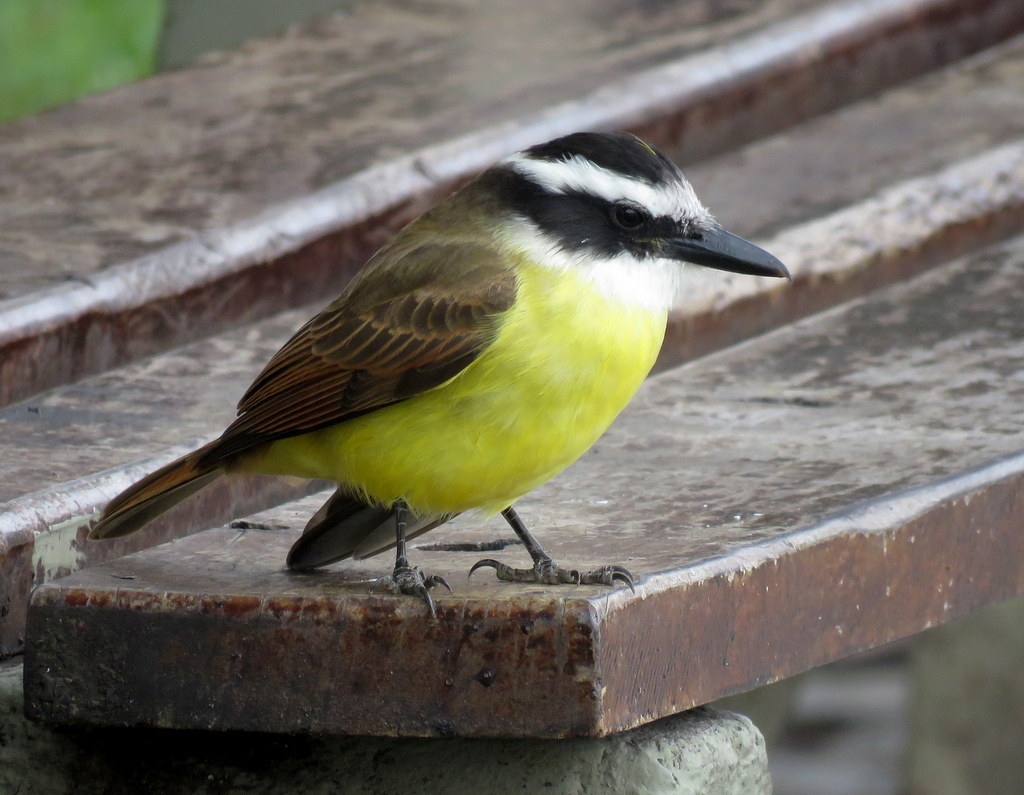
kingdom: Animalia
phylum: Chordata
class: Aves
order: Passeriformes
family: Tyrannidae
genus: Pitangus
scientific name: Pitangus sulphuratus
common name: Great kiskadee
